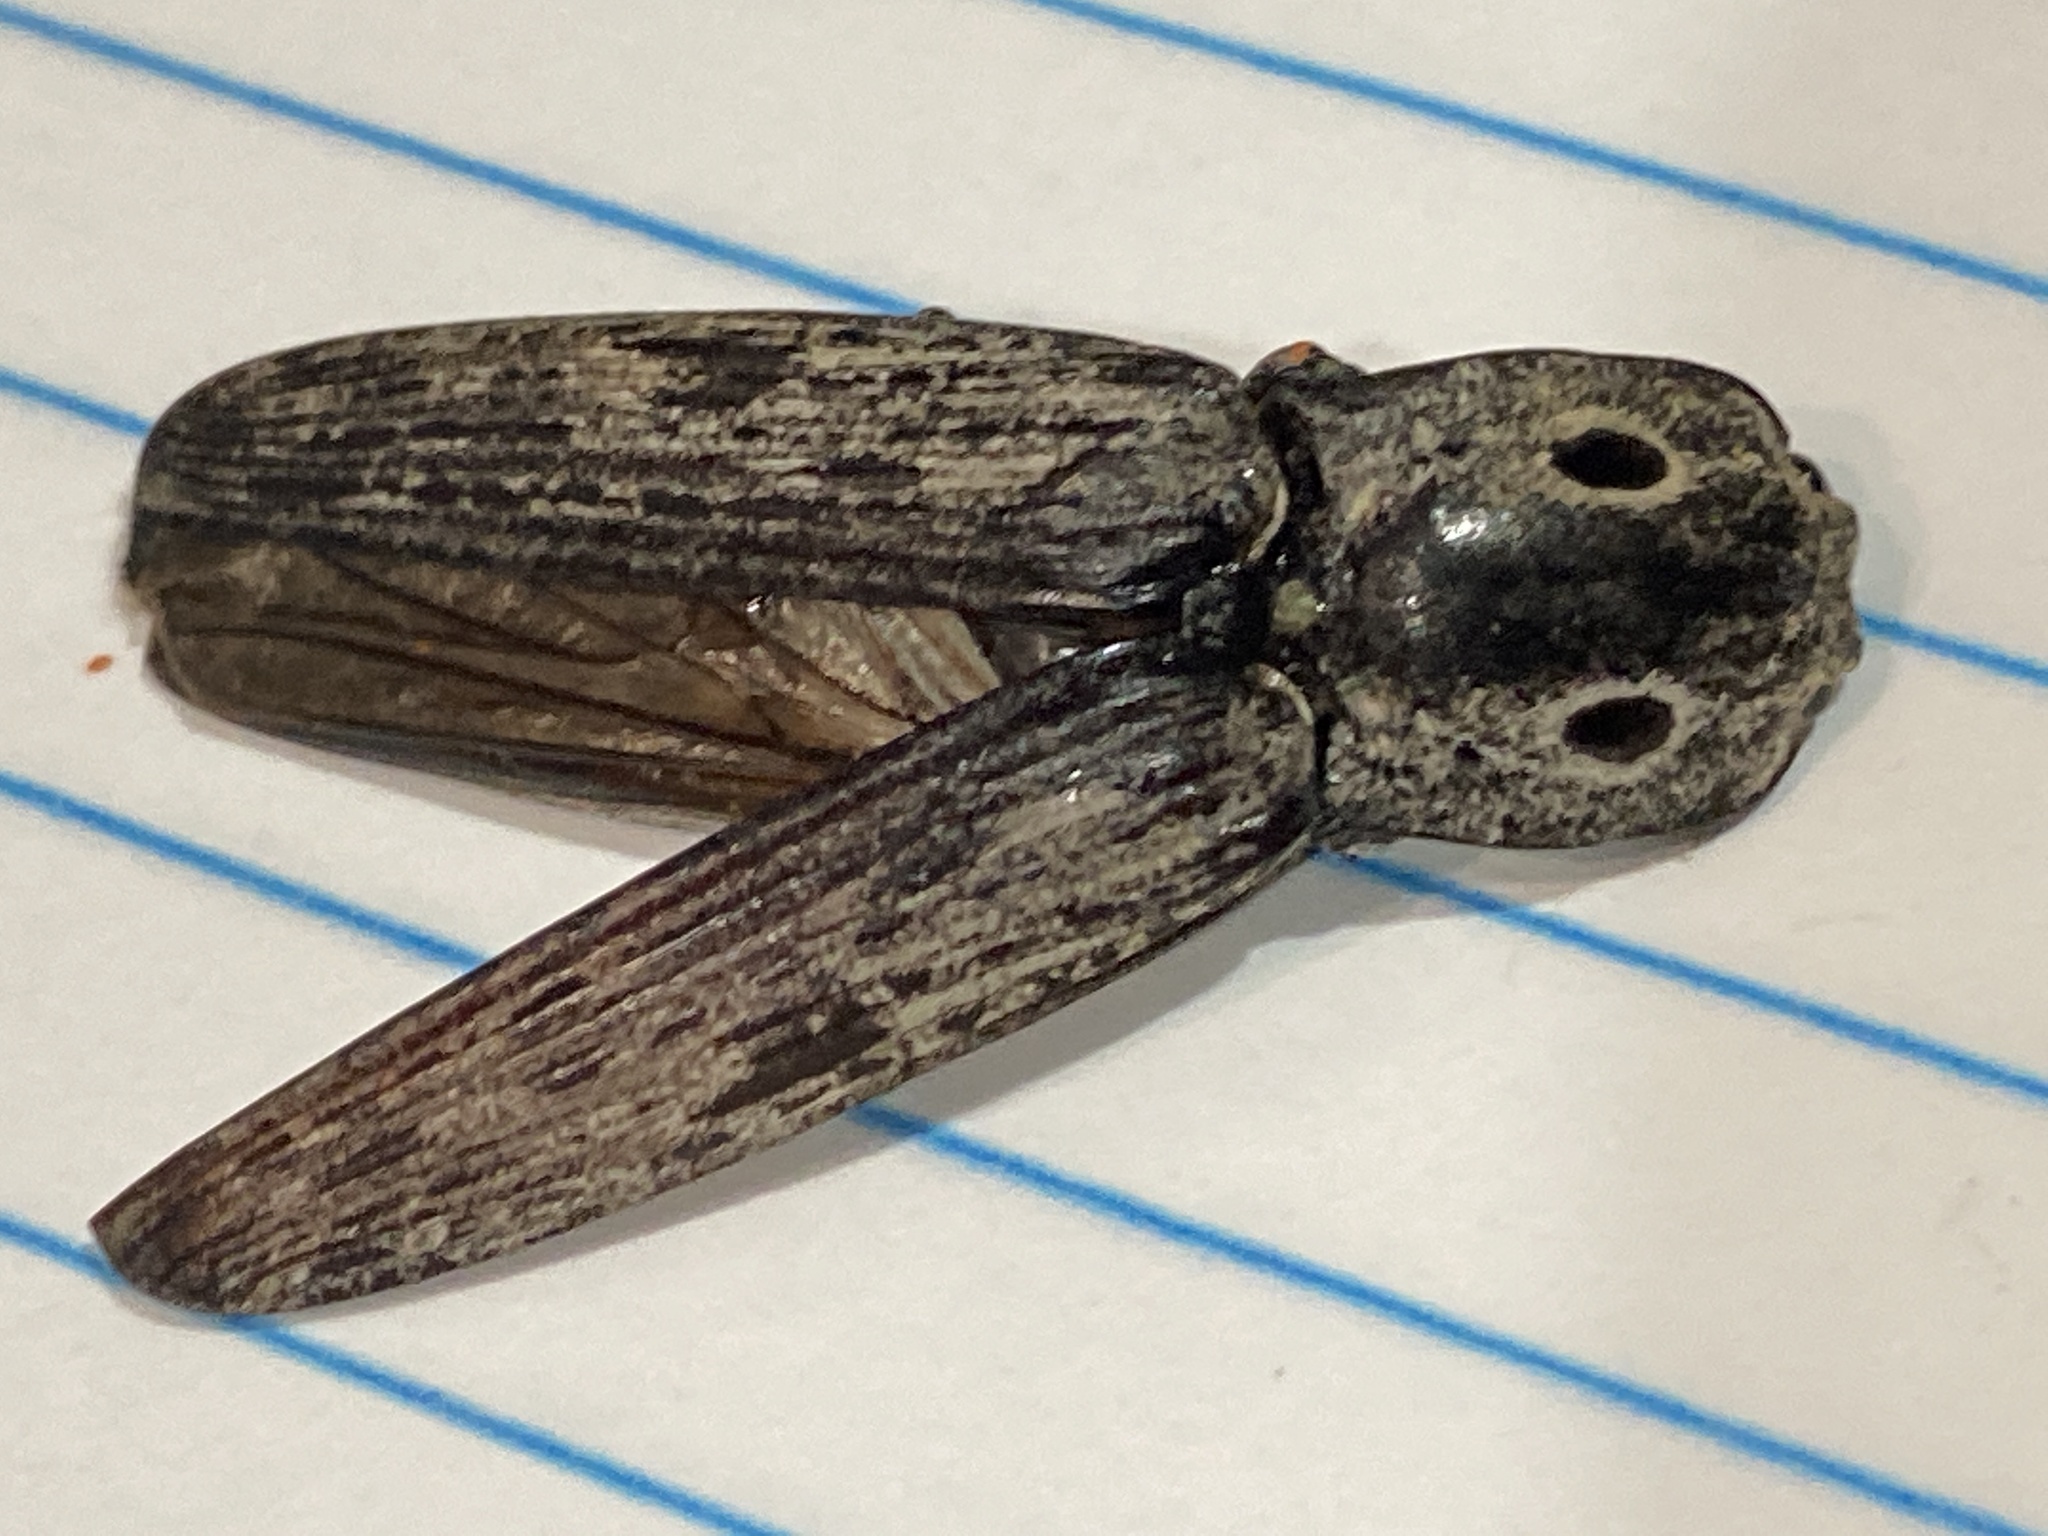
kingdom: Animalia
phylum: Arthropoda
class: Insecta
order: Coleoptera
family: Elateridae
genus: Alaus
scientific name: Alaus myops
